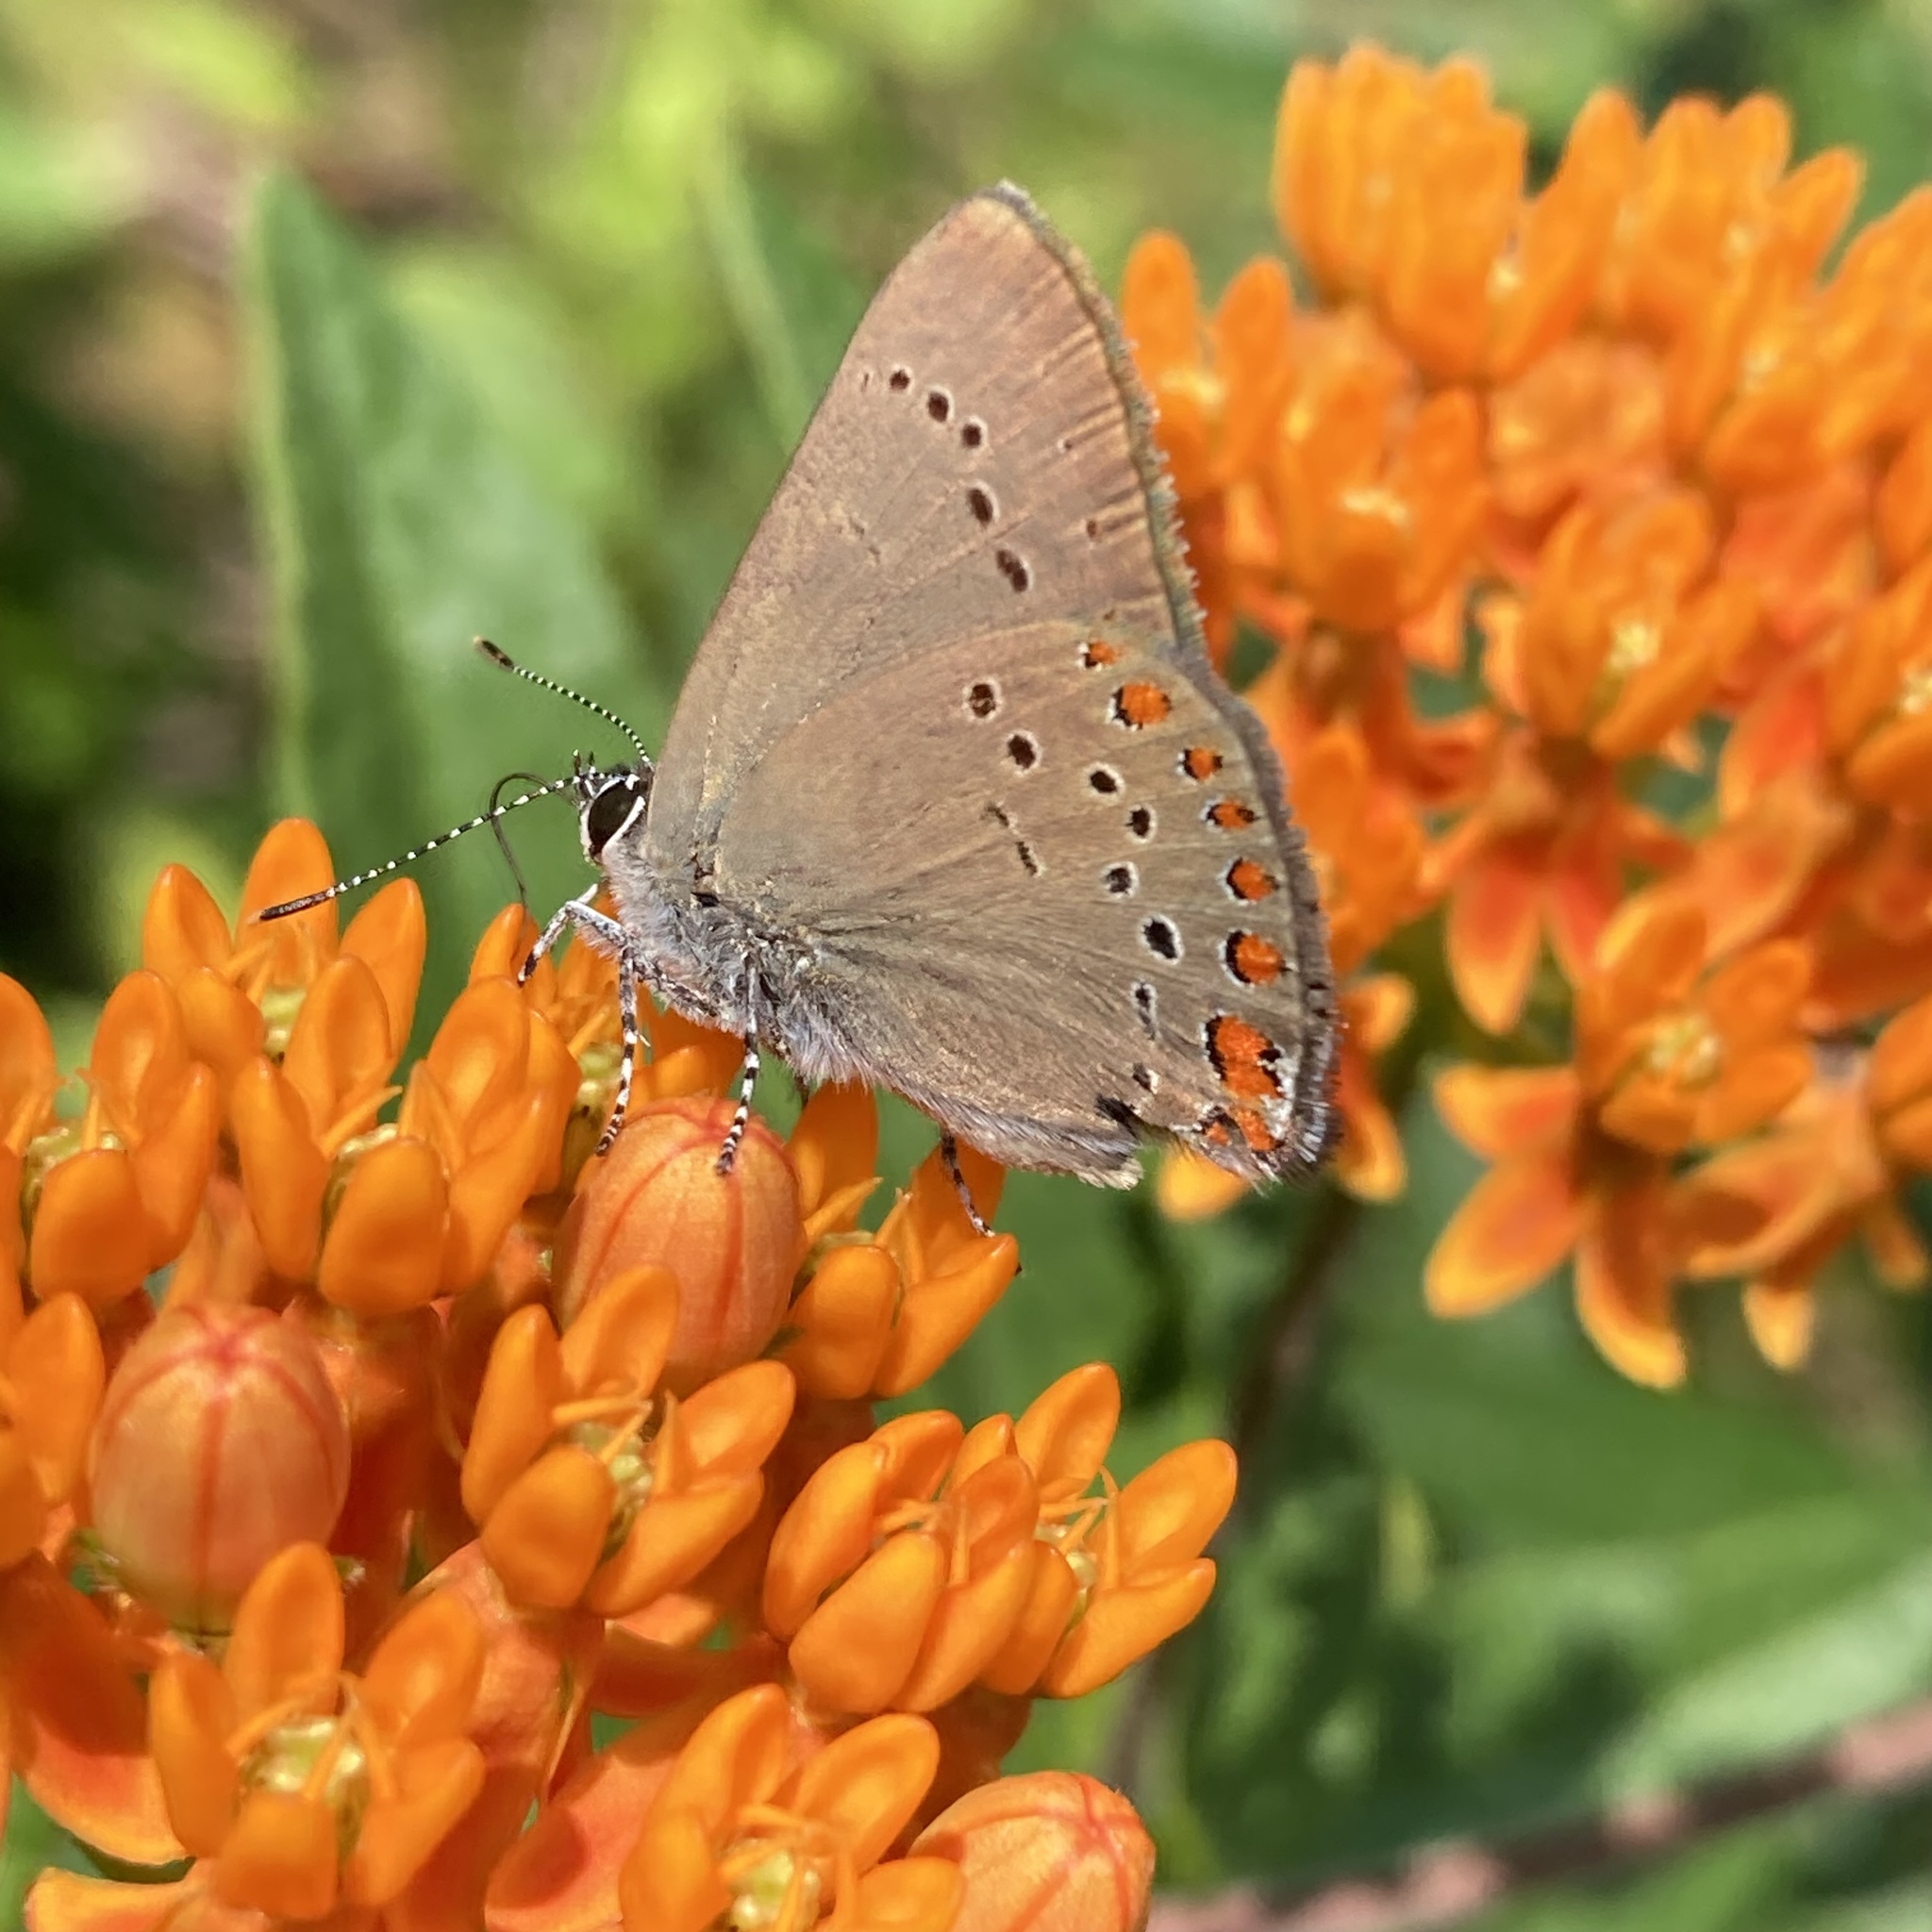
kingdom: Animalia
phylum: Arthropoda
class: Insecta
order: Lepidoptera
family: Lycaenidae
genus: Harkenclenus
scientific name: Harkenclenus titus
